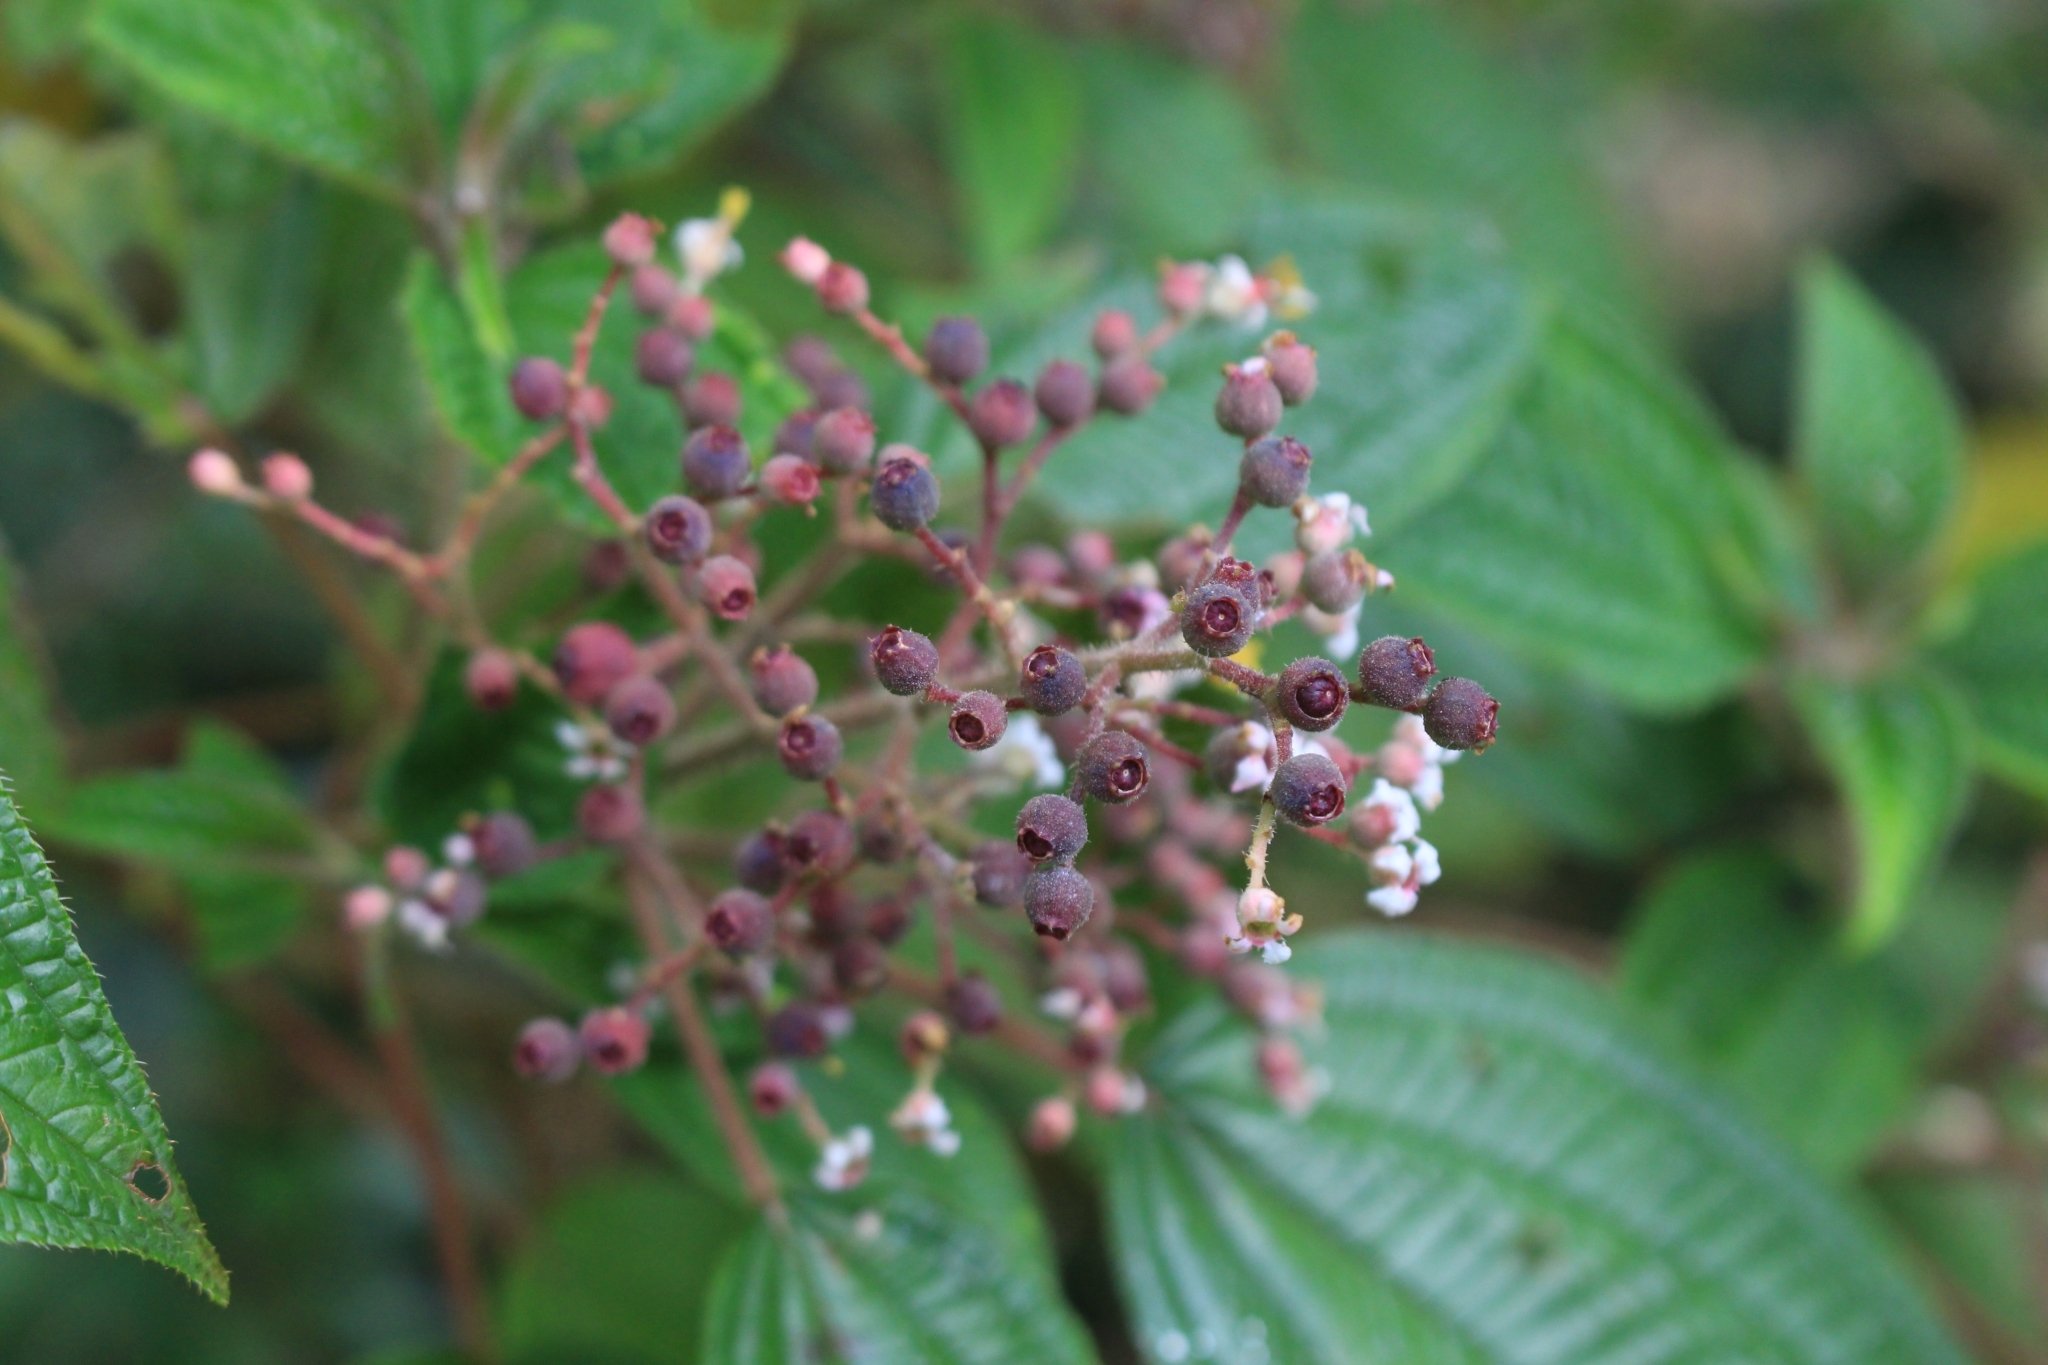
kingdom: Plantae
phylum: Tracheophyta
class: Magnoliopsida
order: Myrtales
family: Melastomataceae
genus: Miconia
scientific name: Miconia subseriata
